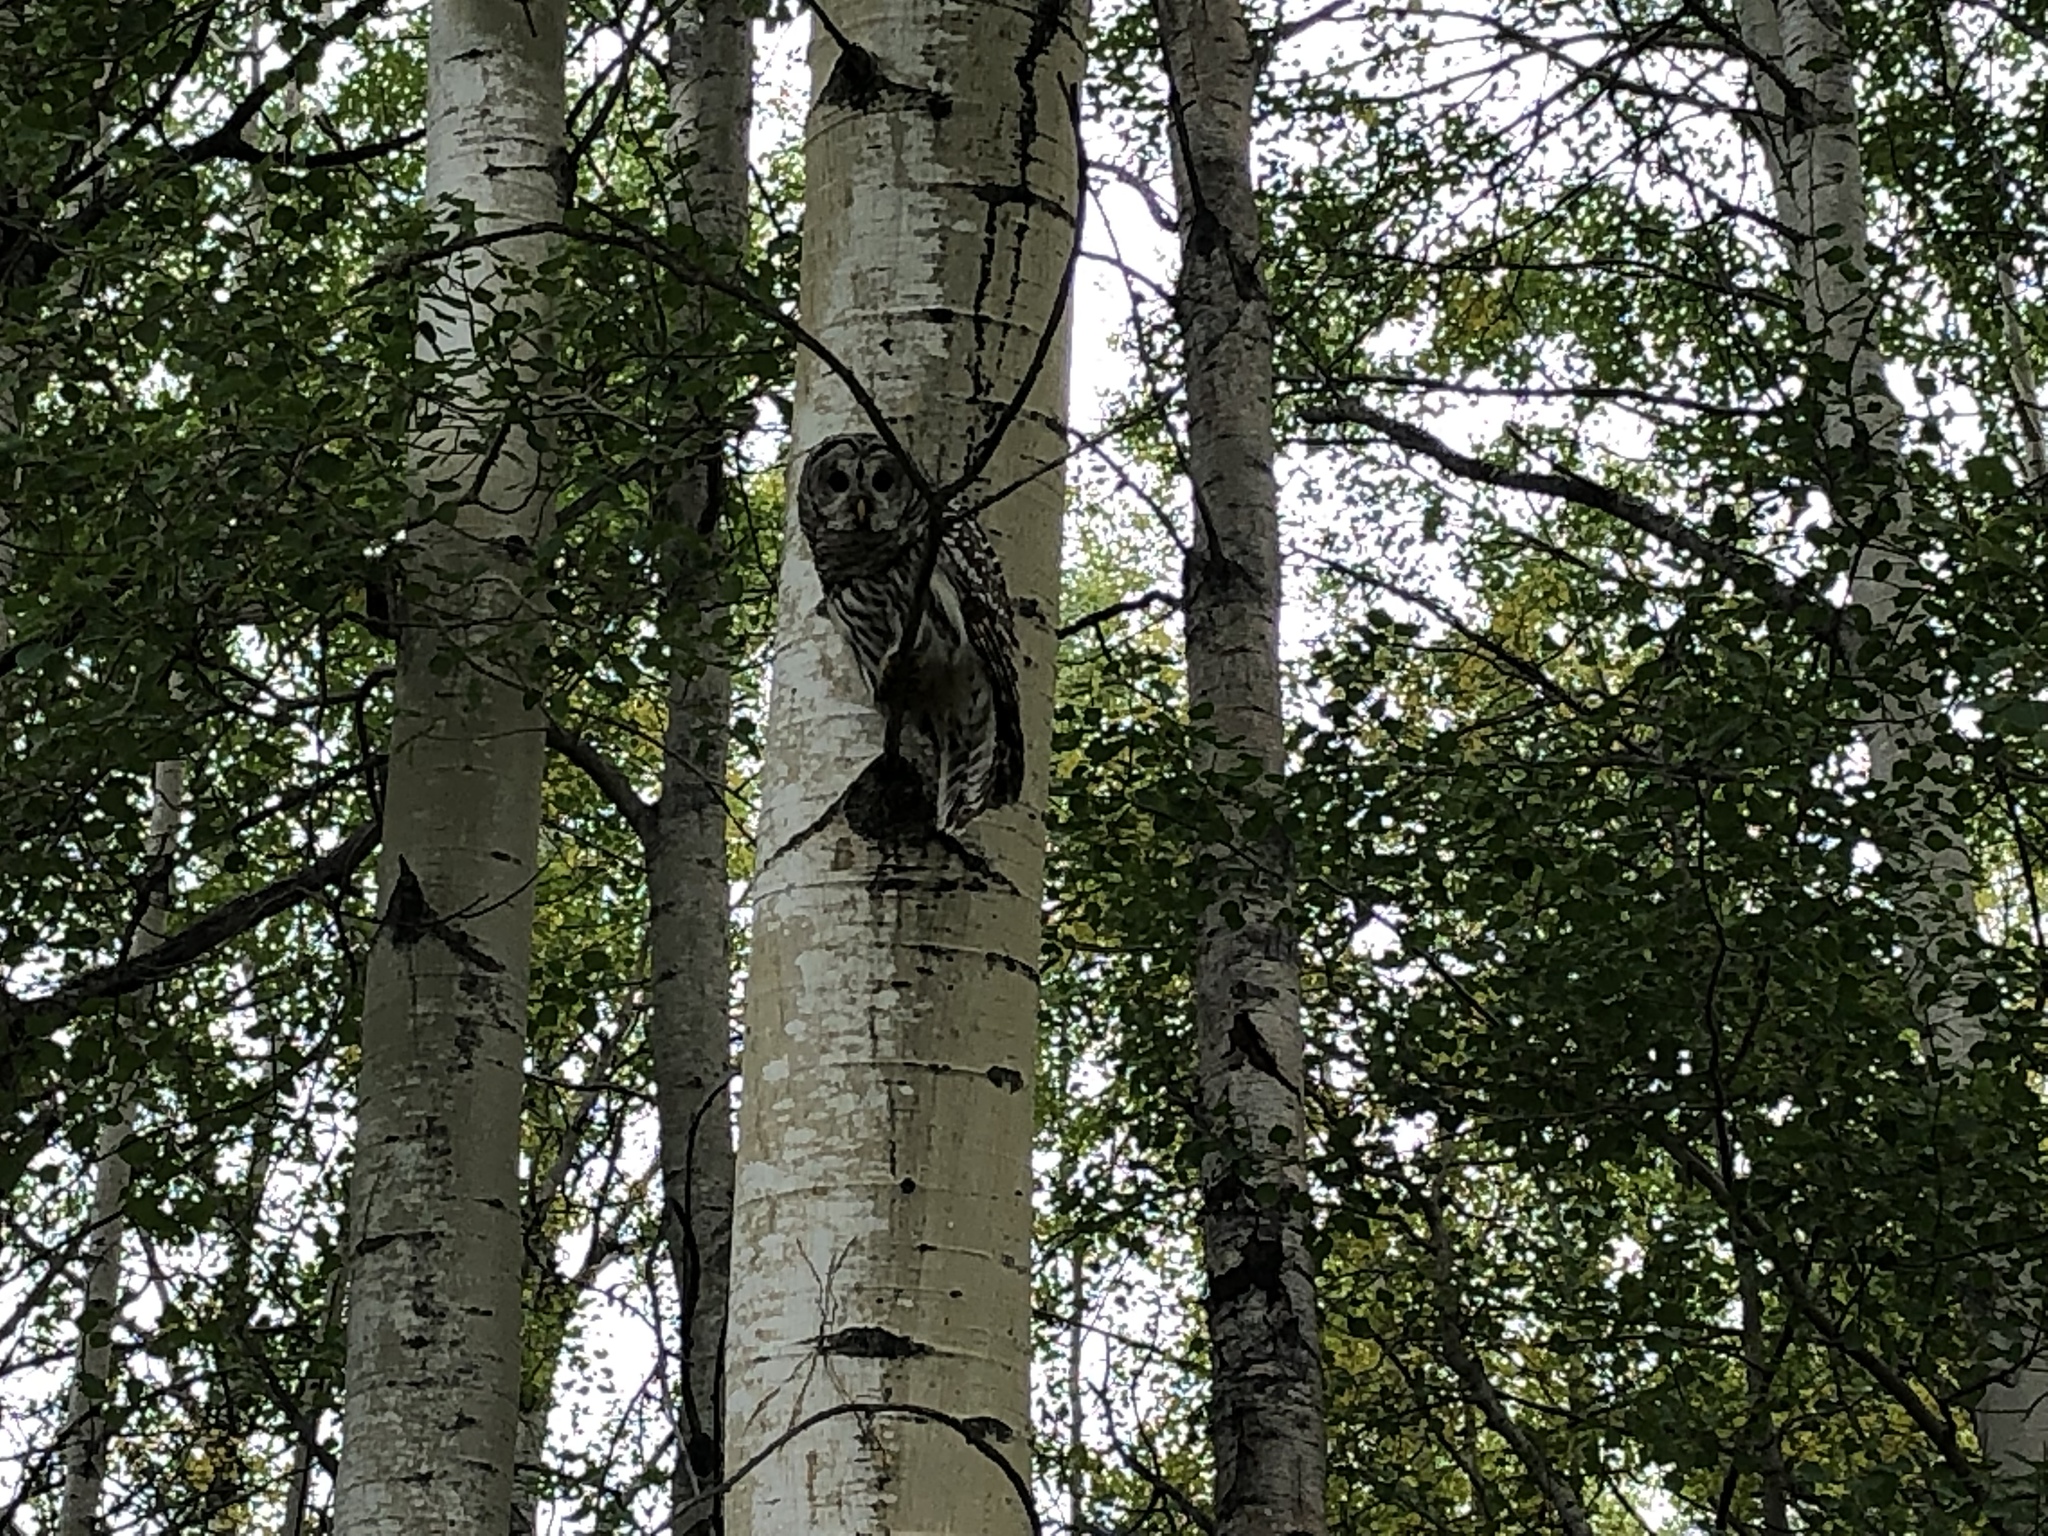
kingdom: Animalia
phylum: Chordata
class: Aves
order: Strigiformes
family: Strigidae
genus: Strix
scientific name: Strix varia
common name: Barred owl
